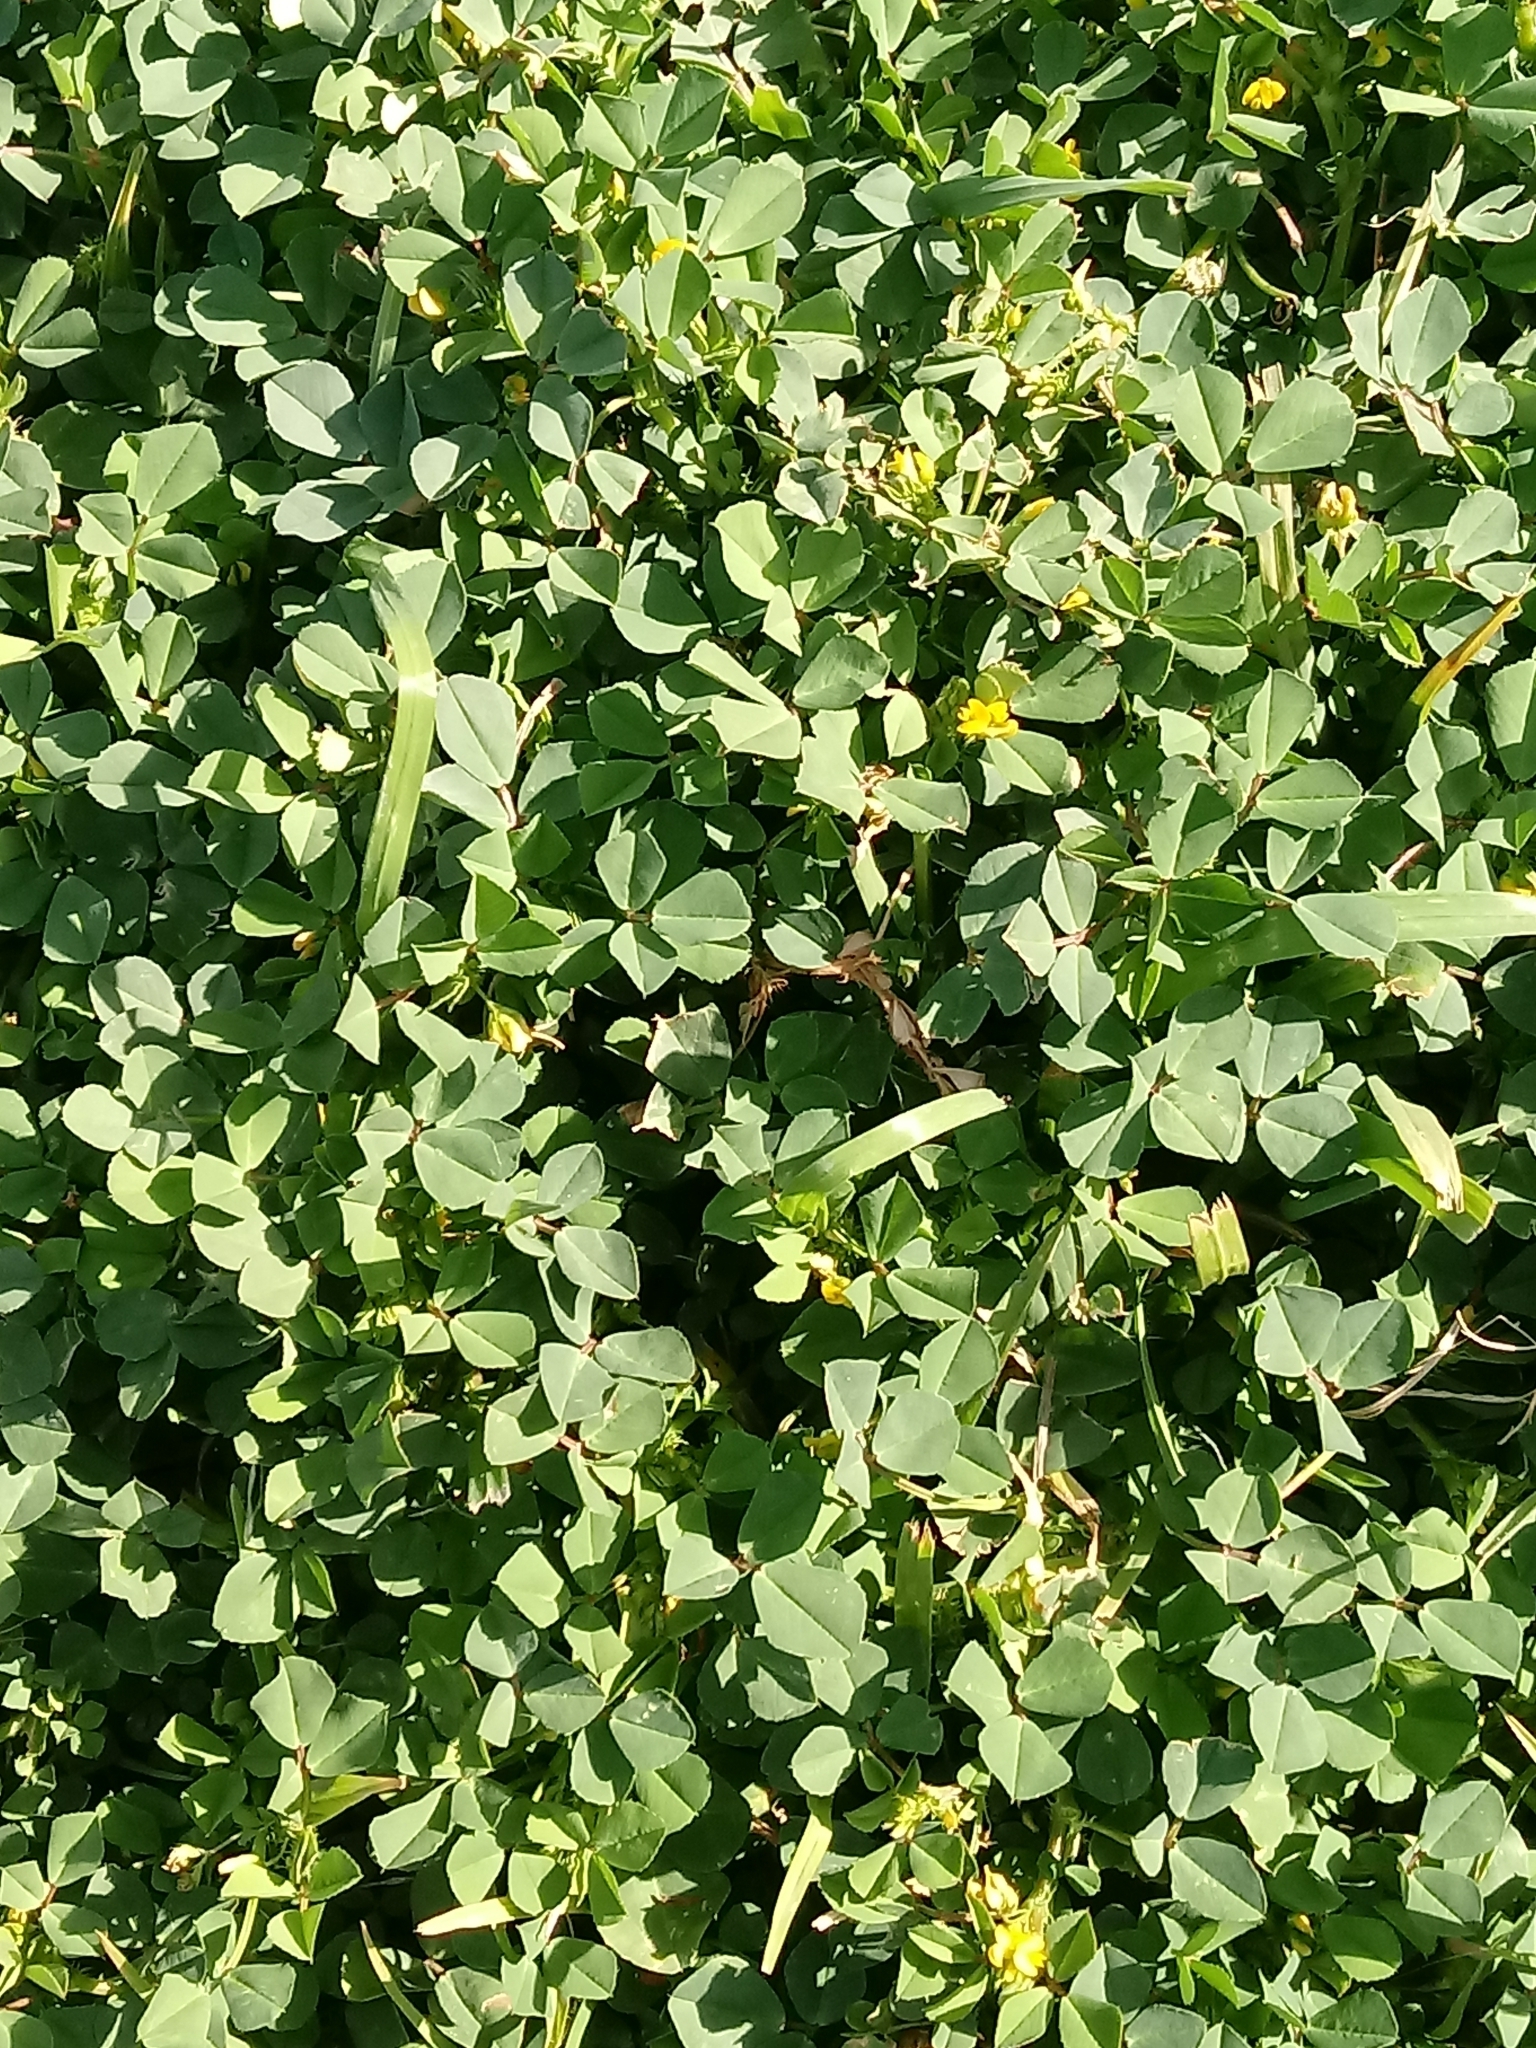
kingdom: Plantae
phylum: Tracheophyta
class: Magnoliopsida
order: Fabales
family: Fabaceae
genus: Medicago
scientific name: Medicago polymorpha
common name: Burclover
